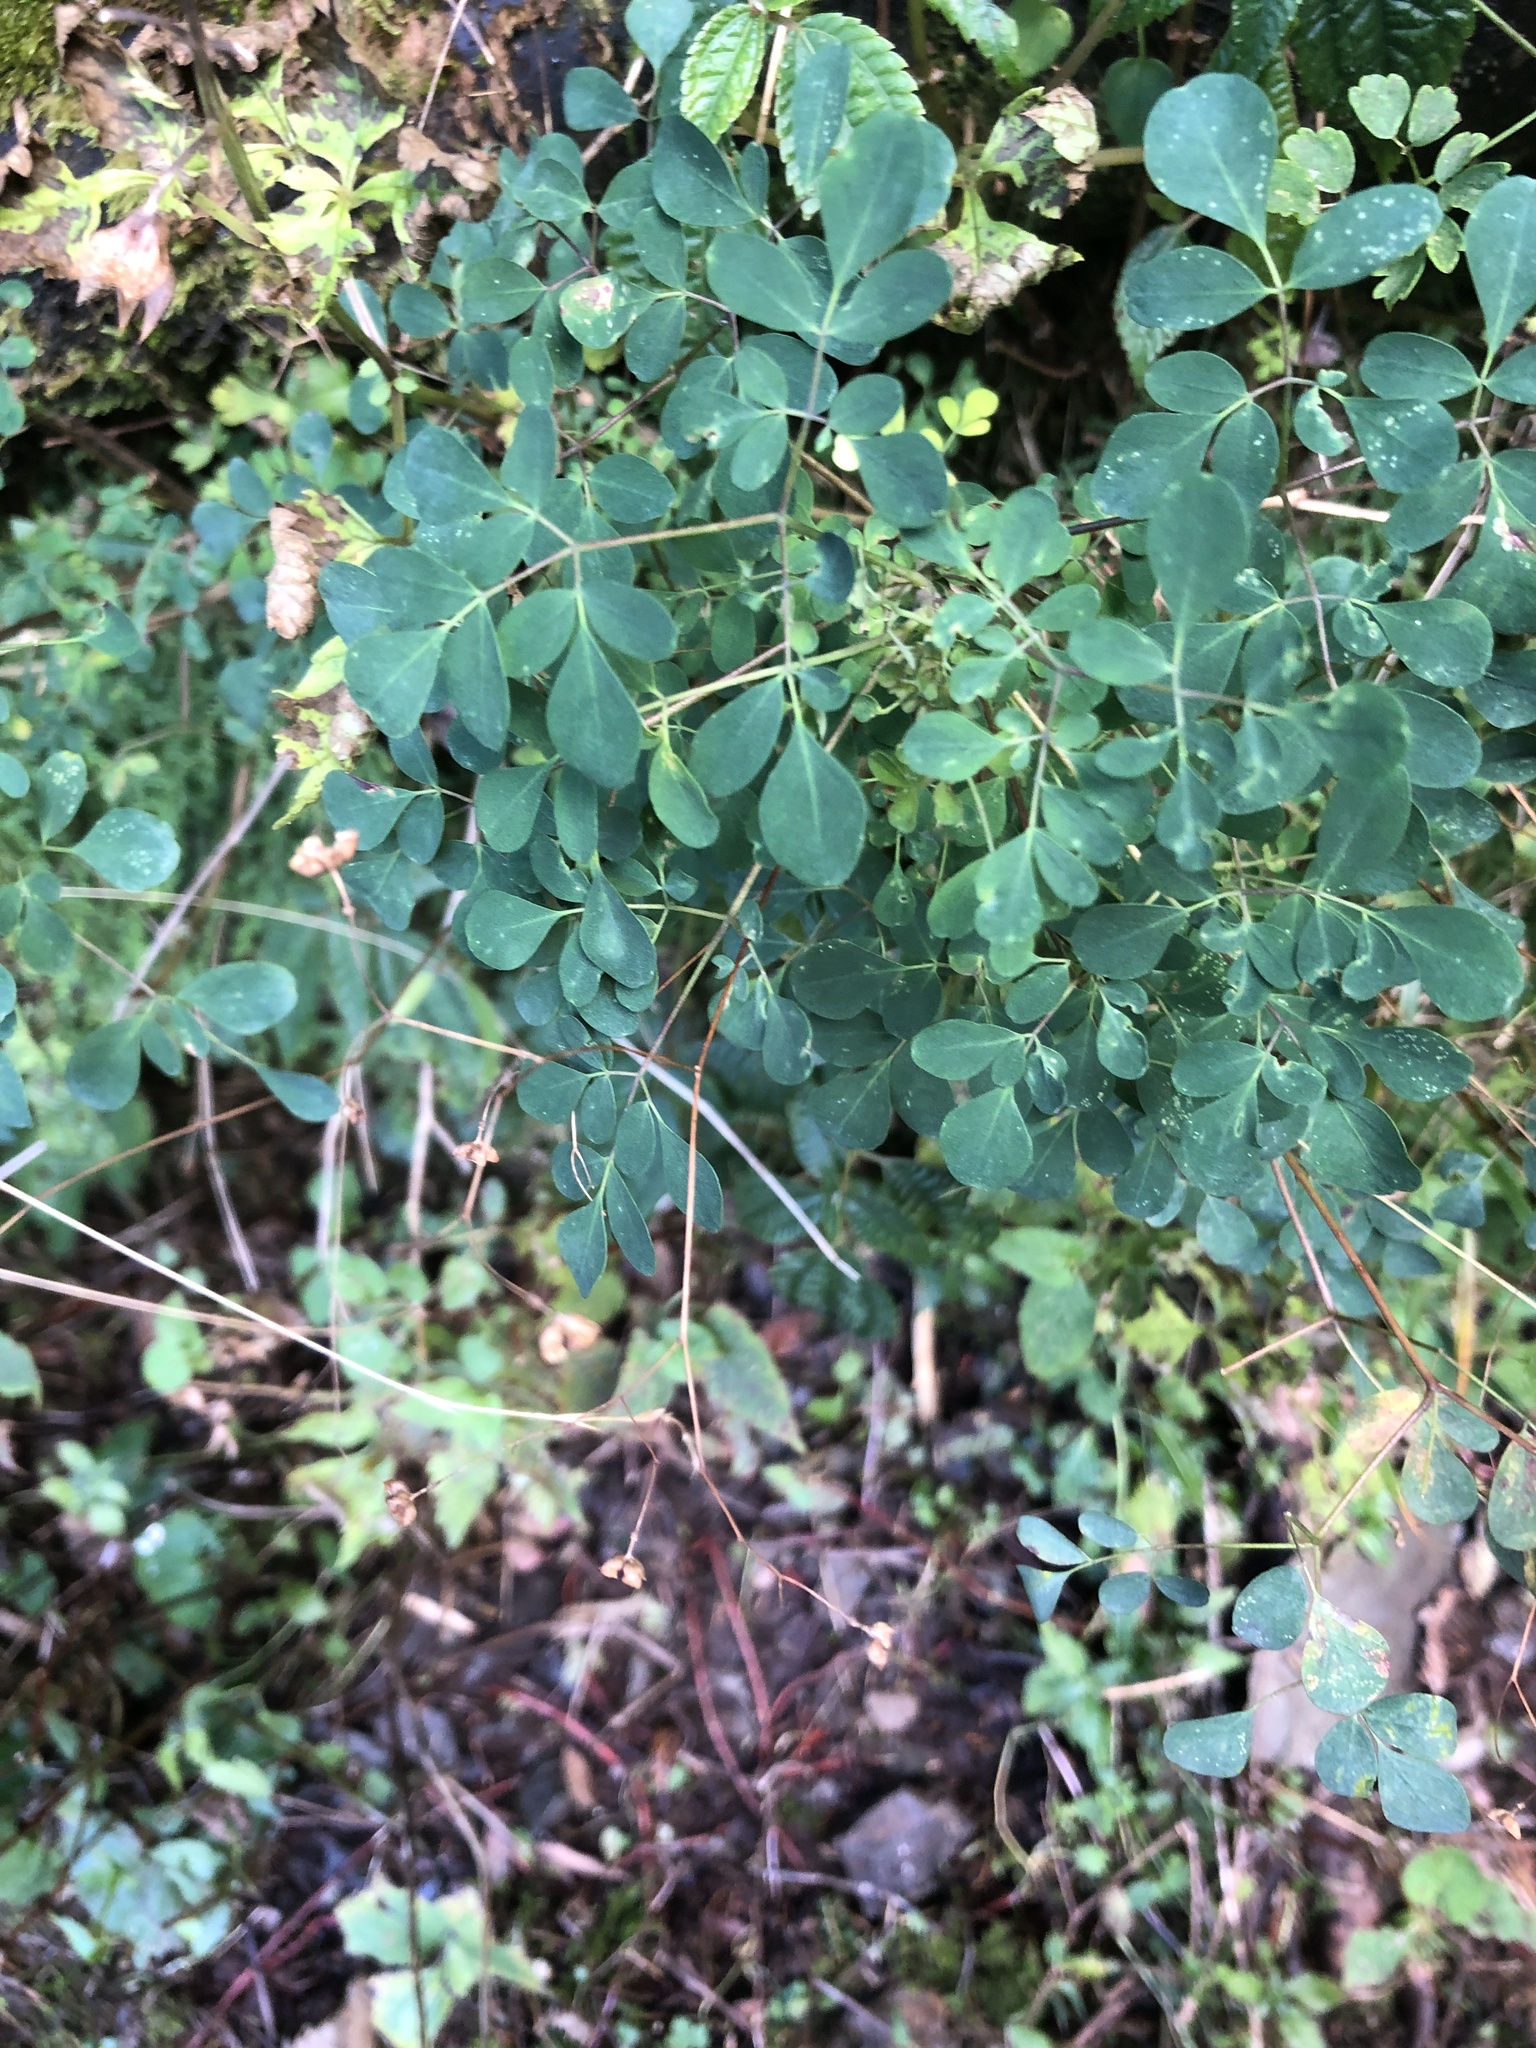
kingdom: Plantae
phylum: Tracheophyta
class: Magnoliopsida
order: Sapindales
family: Rutaceae
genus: Boenninghausenia
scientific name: Boenninghausenia albiflora
